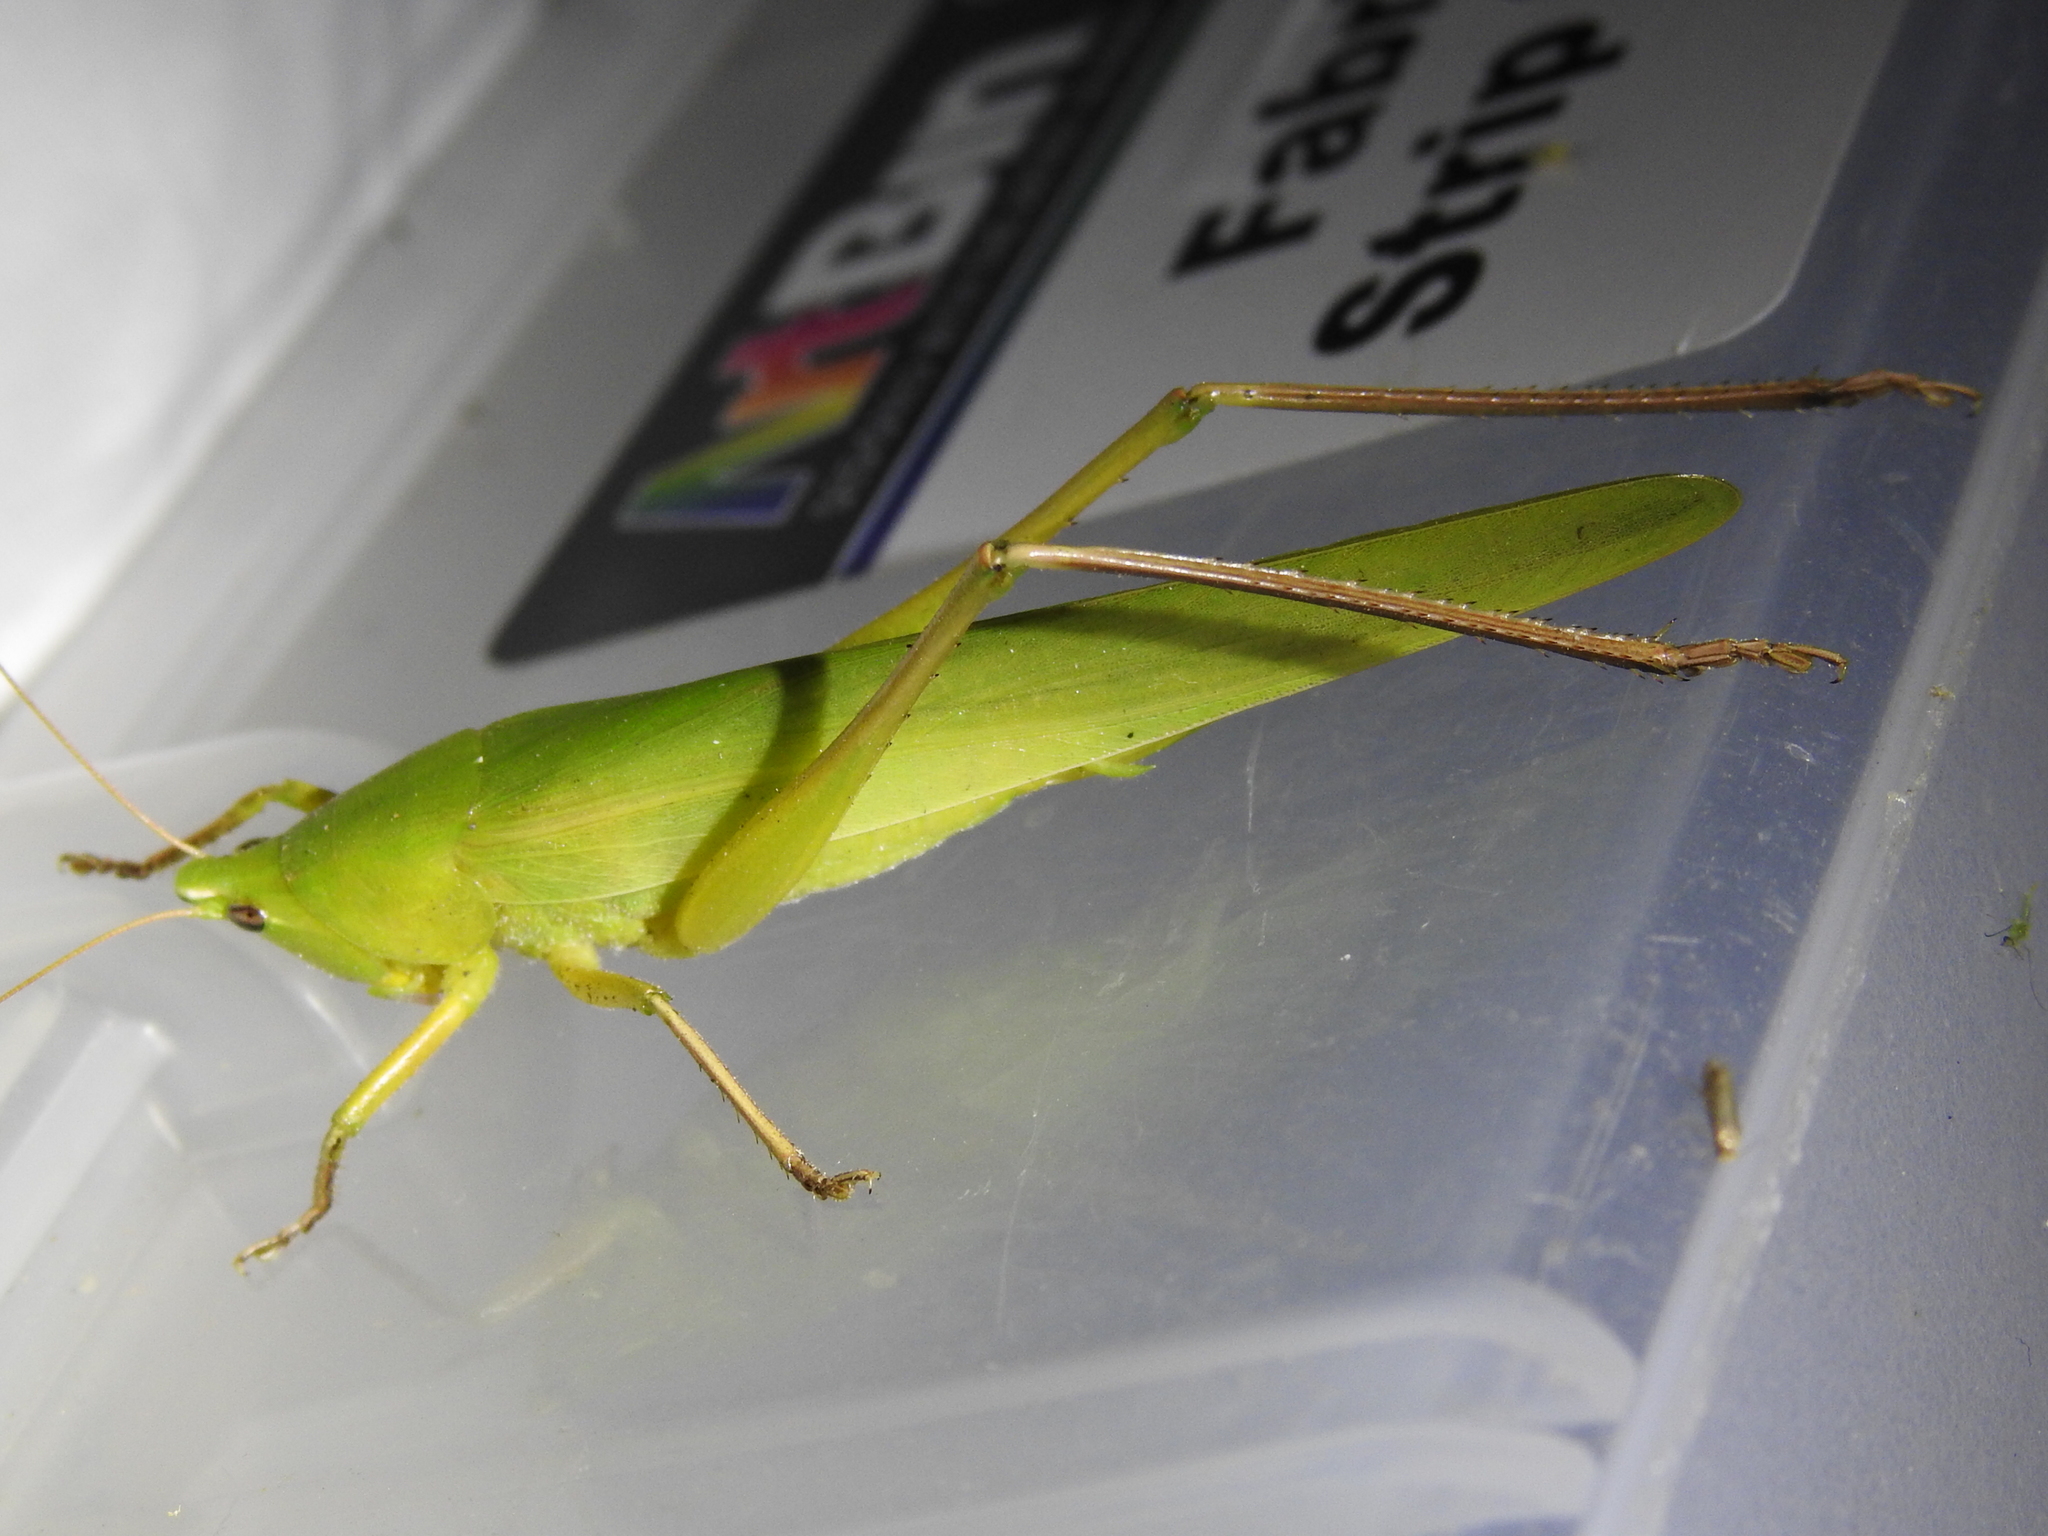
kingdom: Animalia
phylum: Arthropoda
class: Insecta
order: Orthoptera
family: Tettigoniidae
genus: Neoconocephalus
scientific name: Neoconocephalus triops
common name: Broad-tipped conehead
